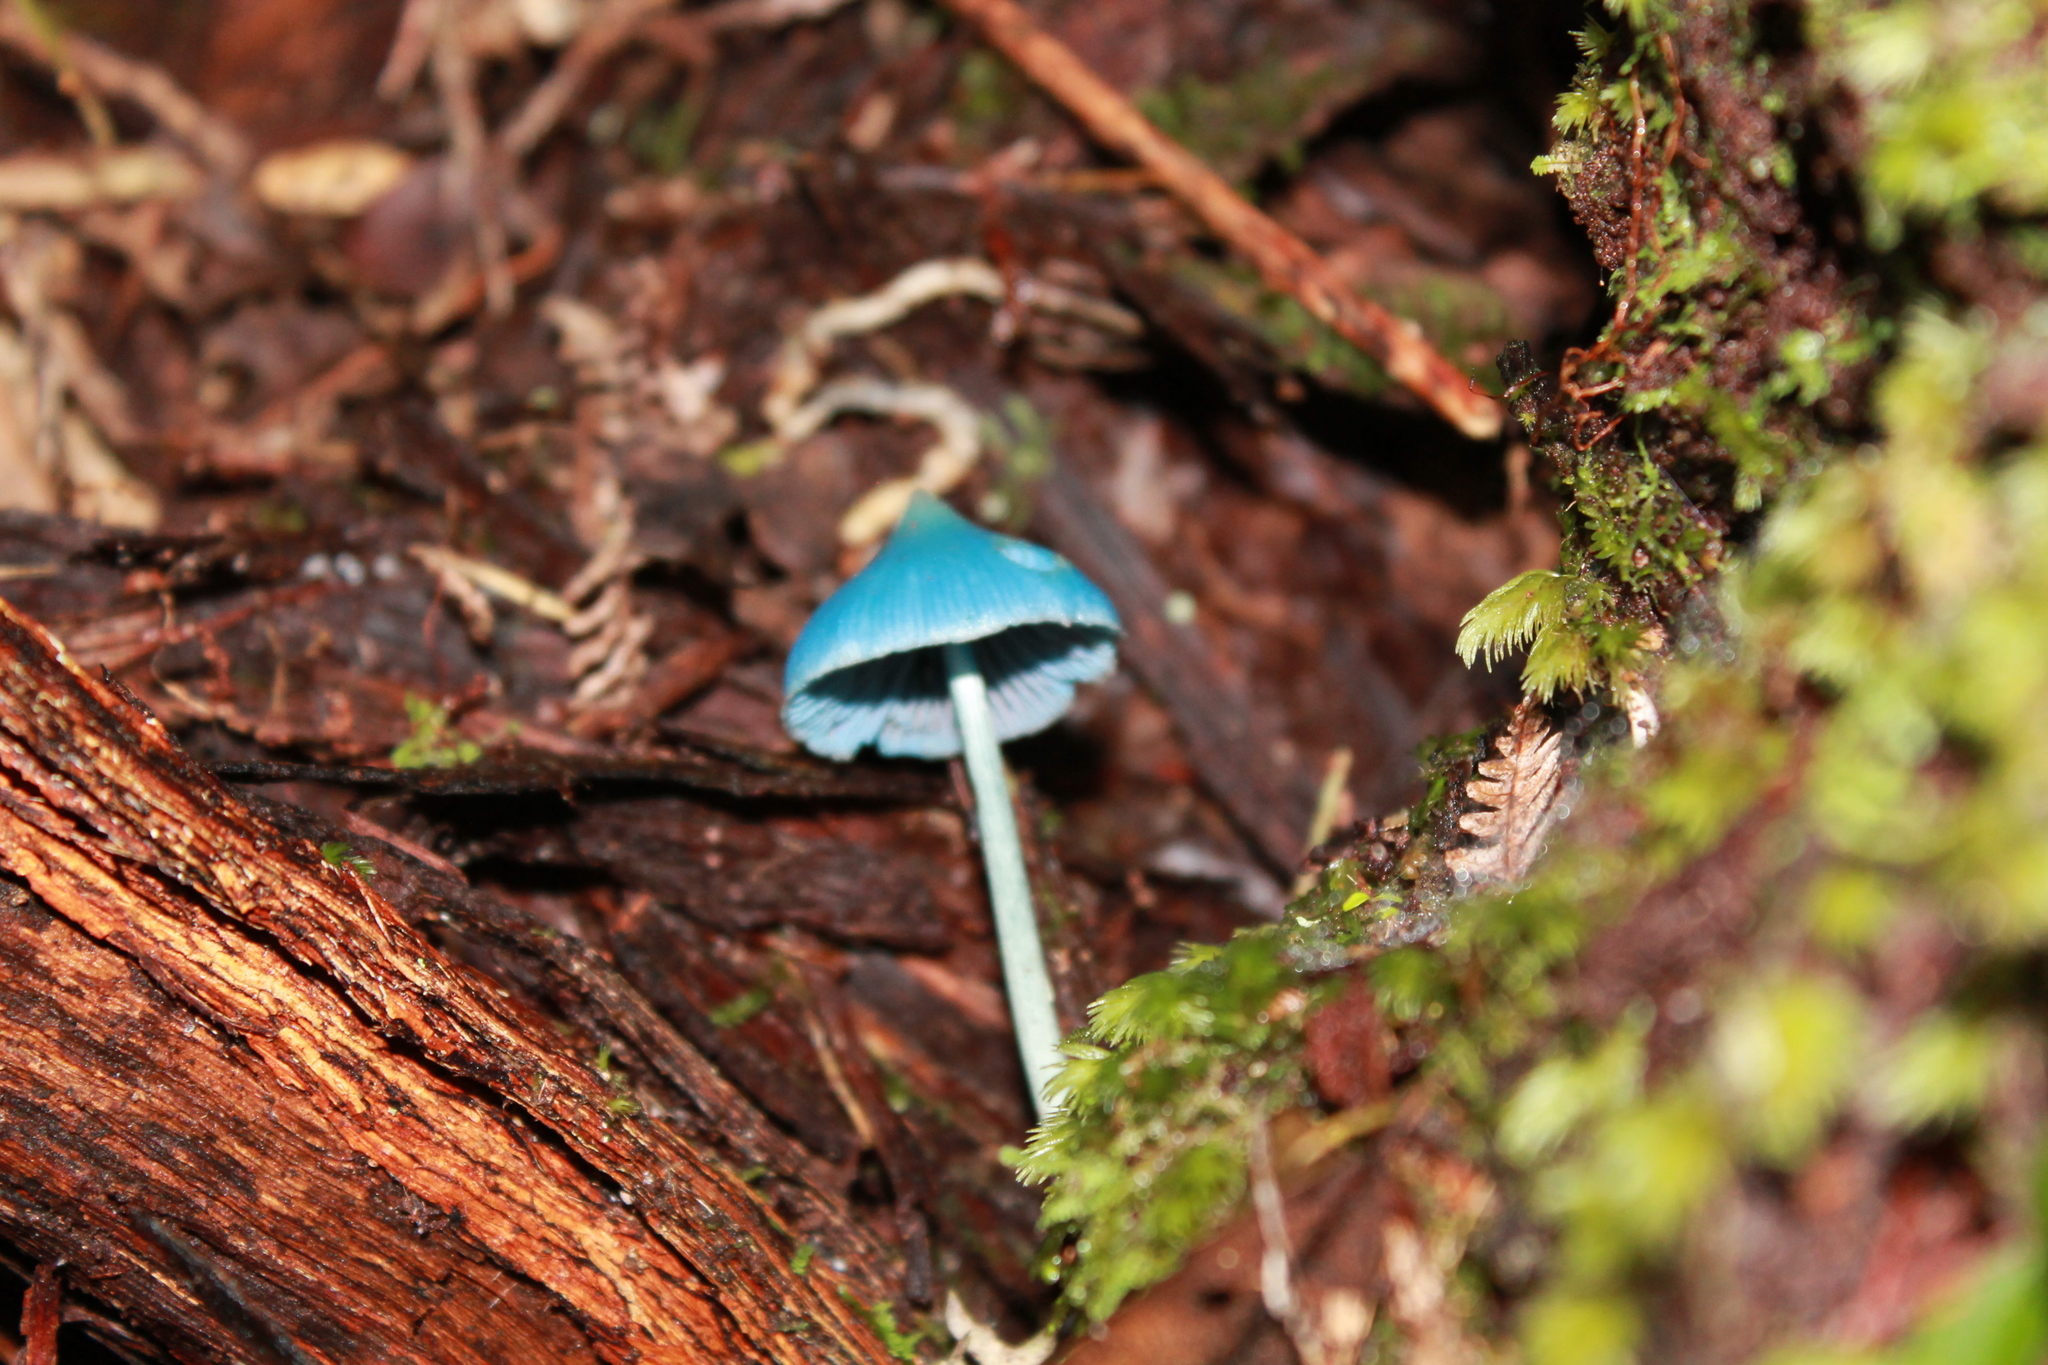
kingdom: Fungi
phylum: Basidiomycota
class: Agaricomycetes
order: Agaricales
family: Entolomataceae
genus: Entoloma
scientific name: Entoloma hochstetteri
